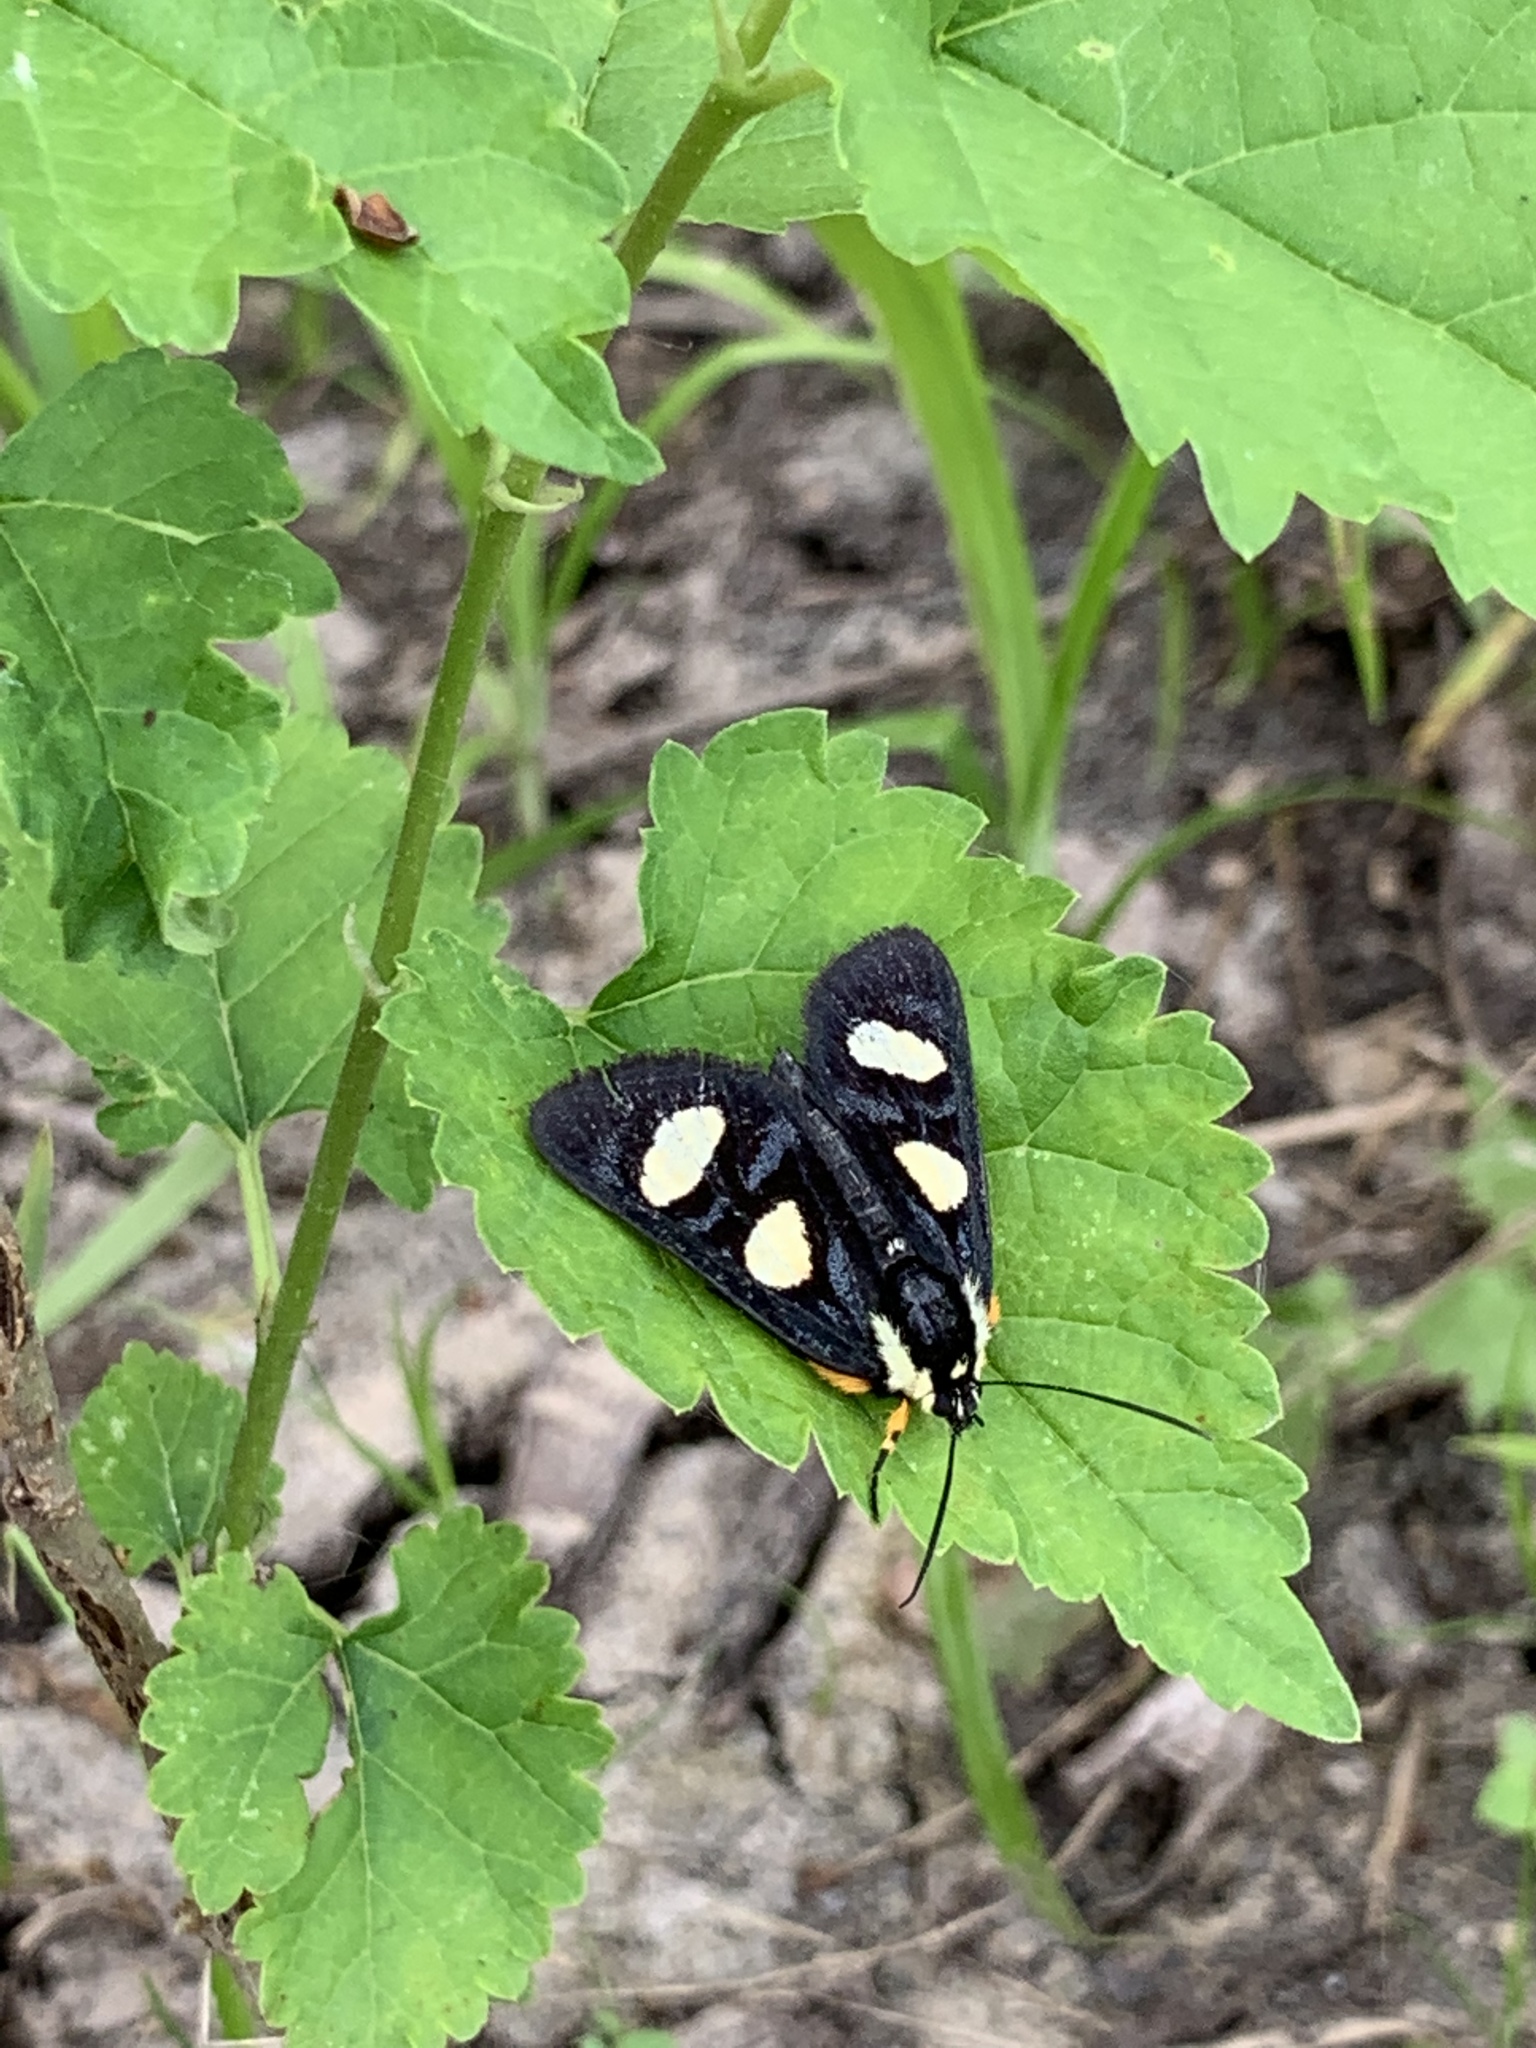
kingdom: Animalia
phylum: Arthropoda
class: Insecta
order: Lepidoptera
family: Noctuidae
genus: Alypia
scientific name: Alypia octomaculata
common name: Eight-spotted forester
